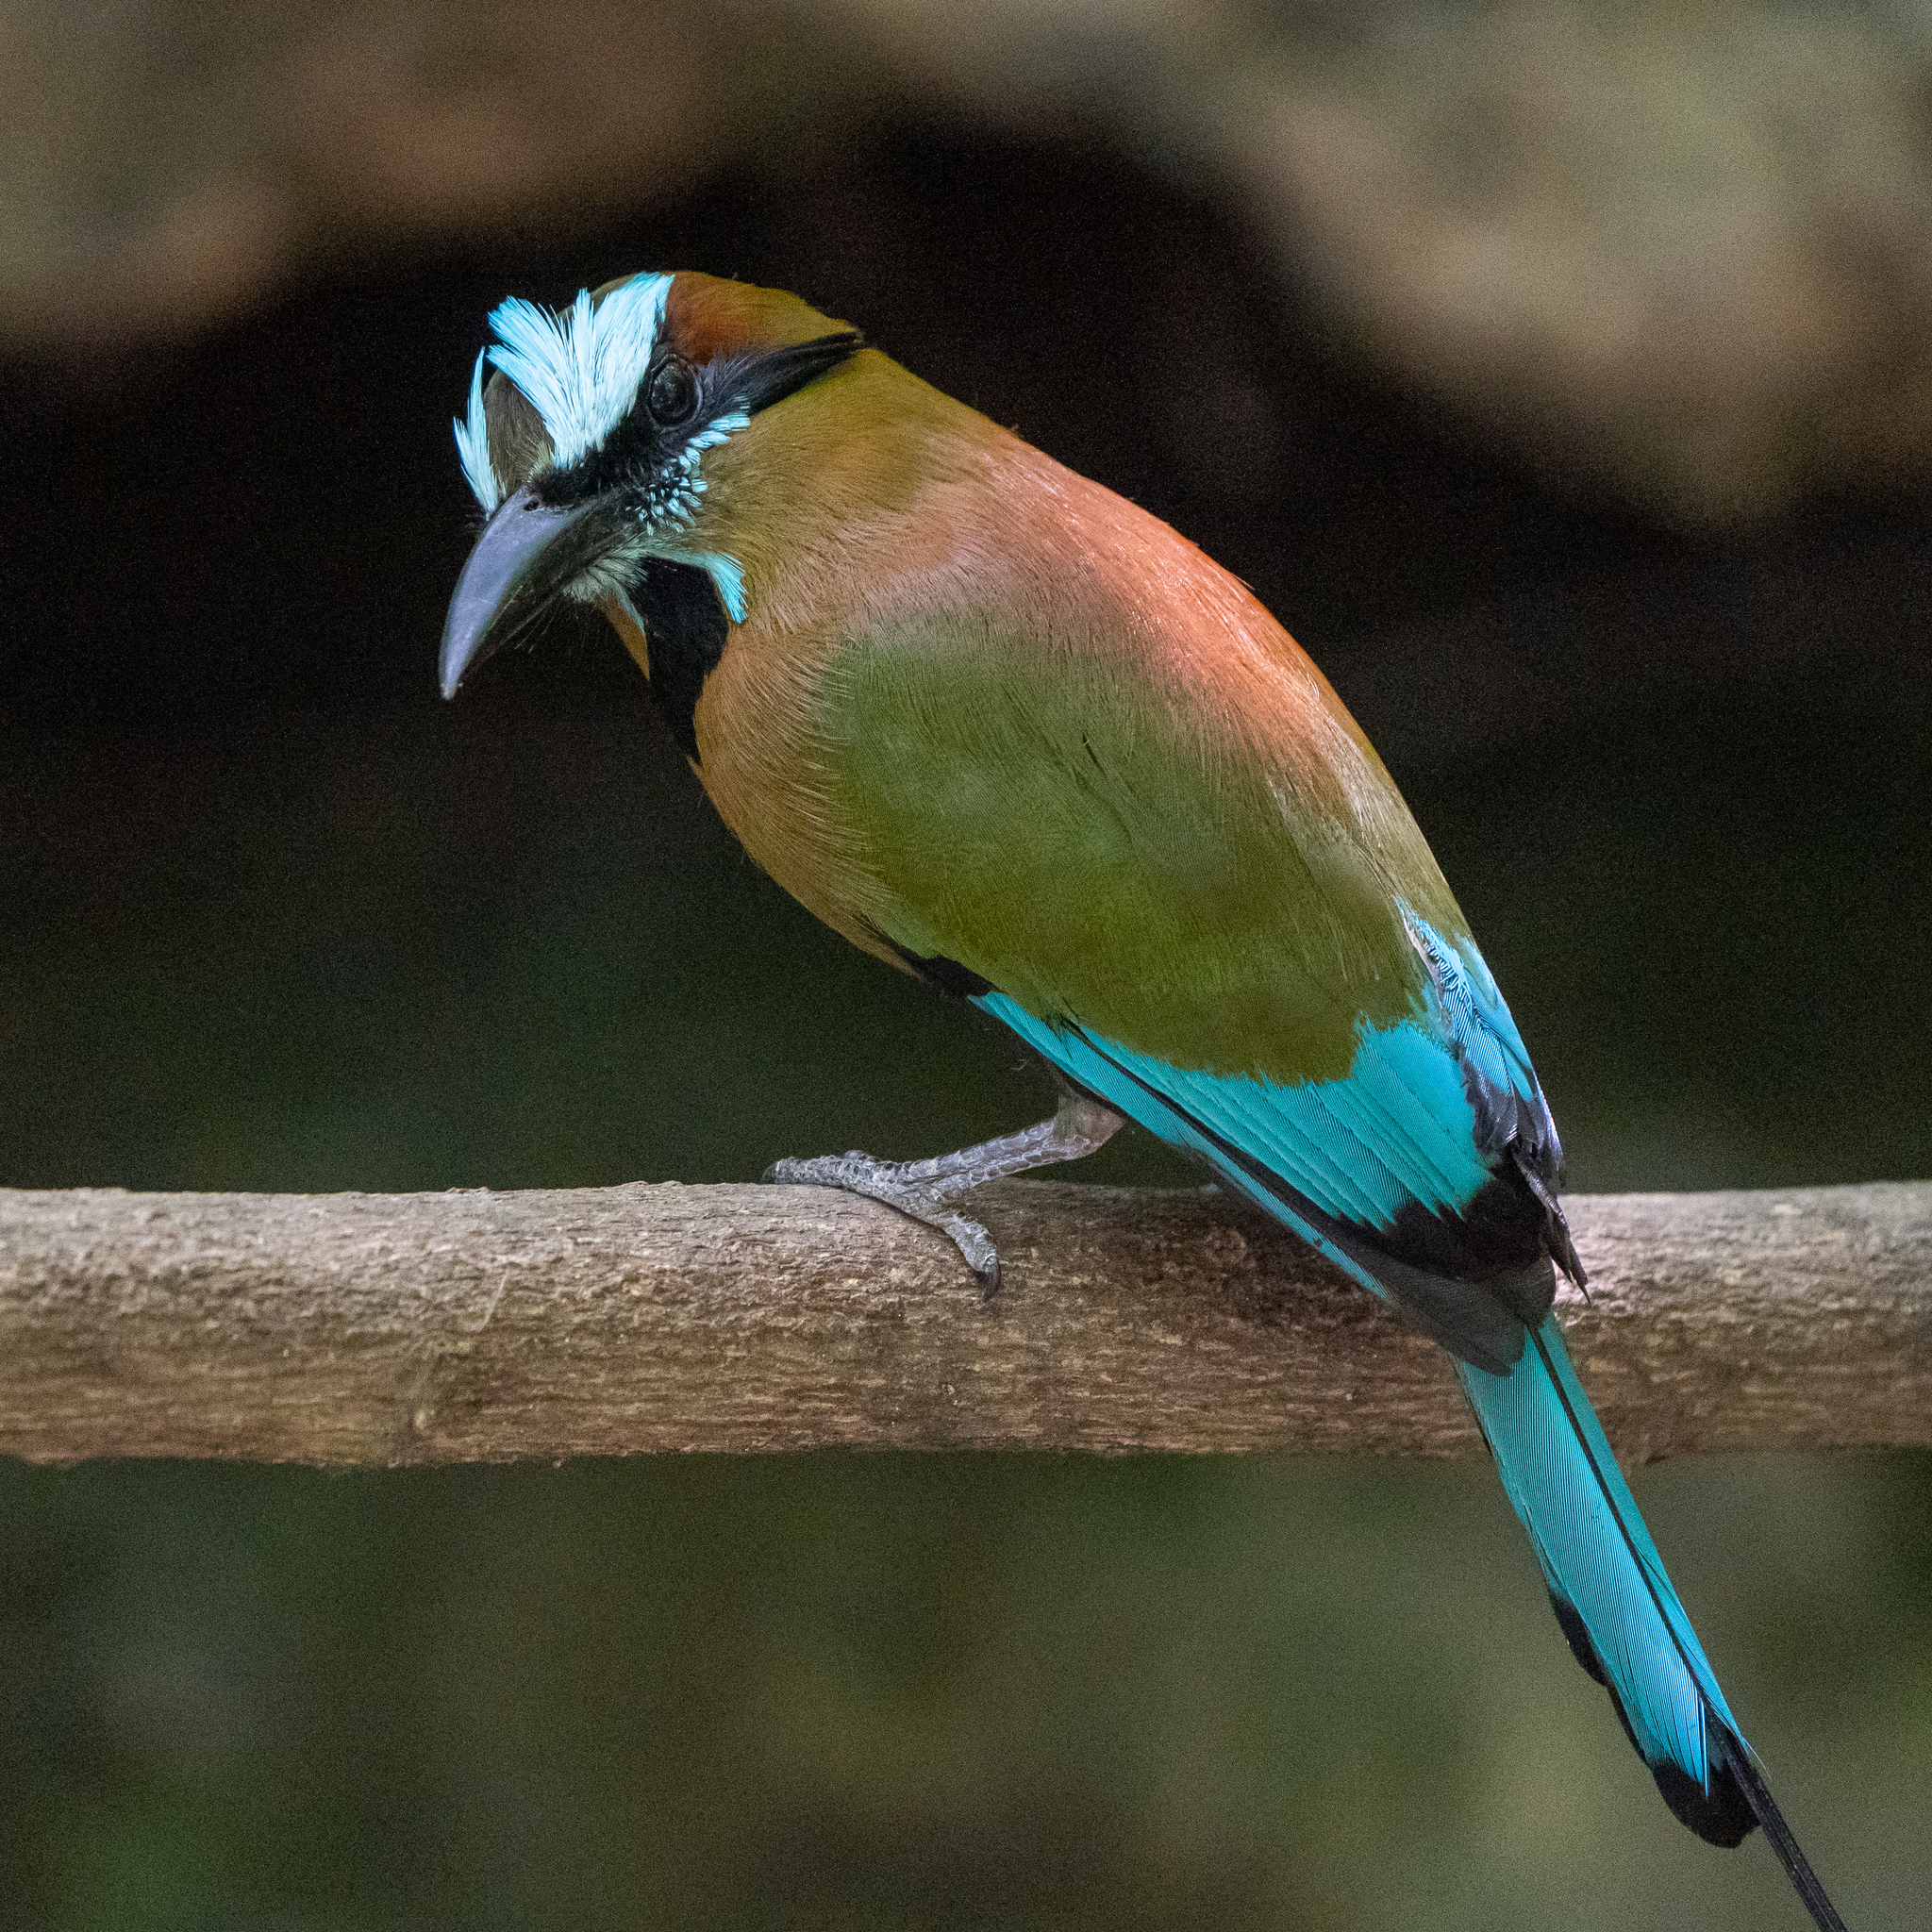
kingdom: Animalia
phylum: Chordata
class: Aves
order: Coraciiformes
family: Momotidae
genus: Eumomota
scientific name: Eumomota superciliosa
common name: Turquoise-browed motmot
